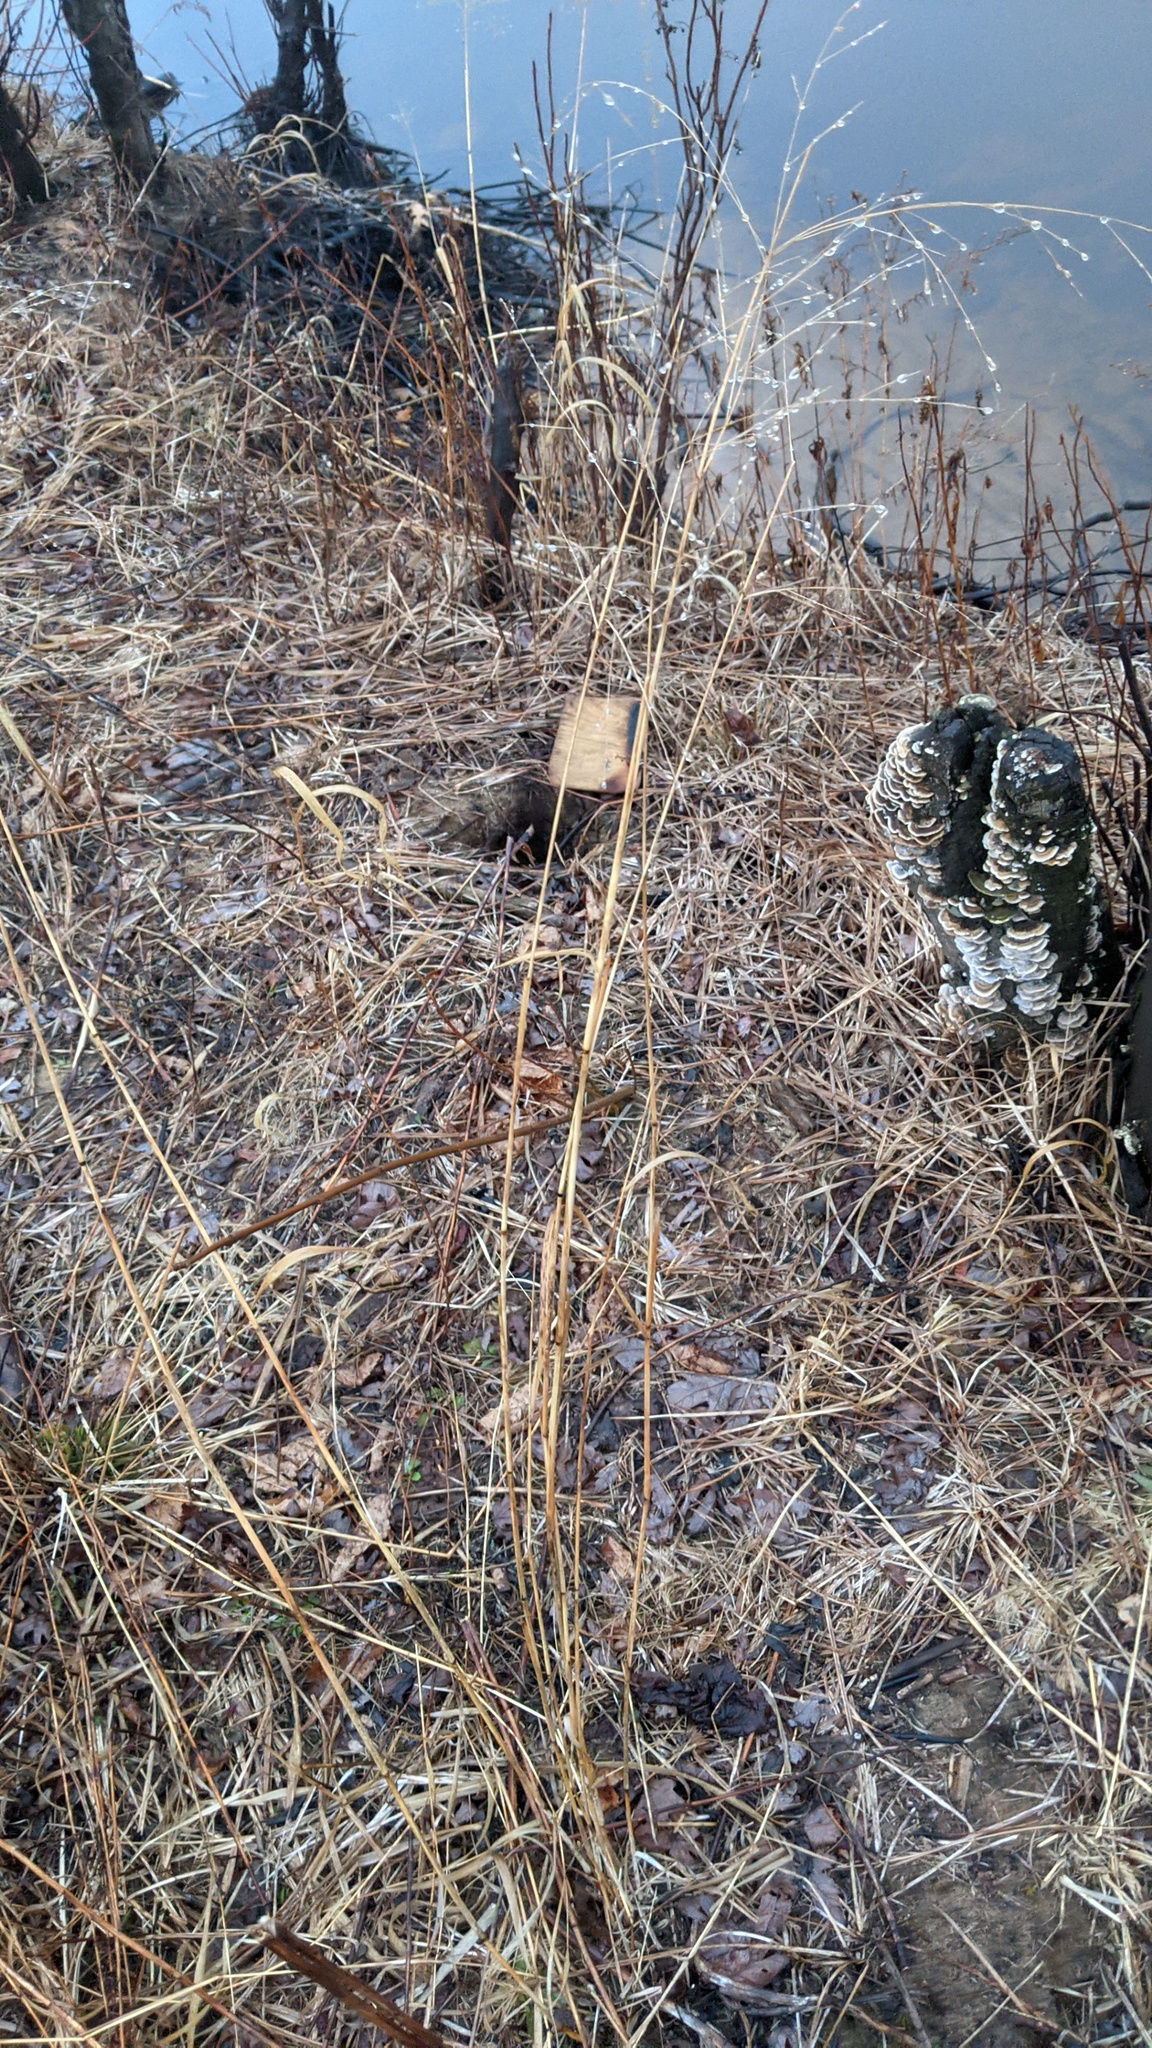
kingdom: Plantae
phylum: Tracheophyta
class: Liliopsida
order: Poales
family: Poaceae
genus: Panicum
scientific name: Panicum virgatum
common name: Switchgrass
